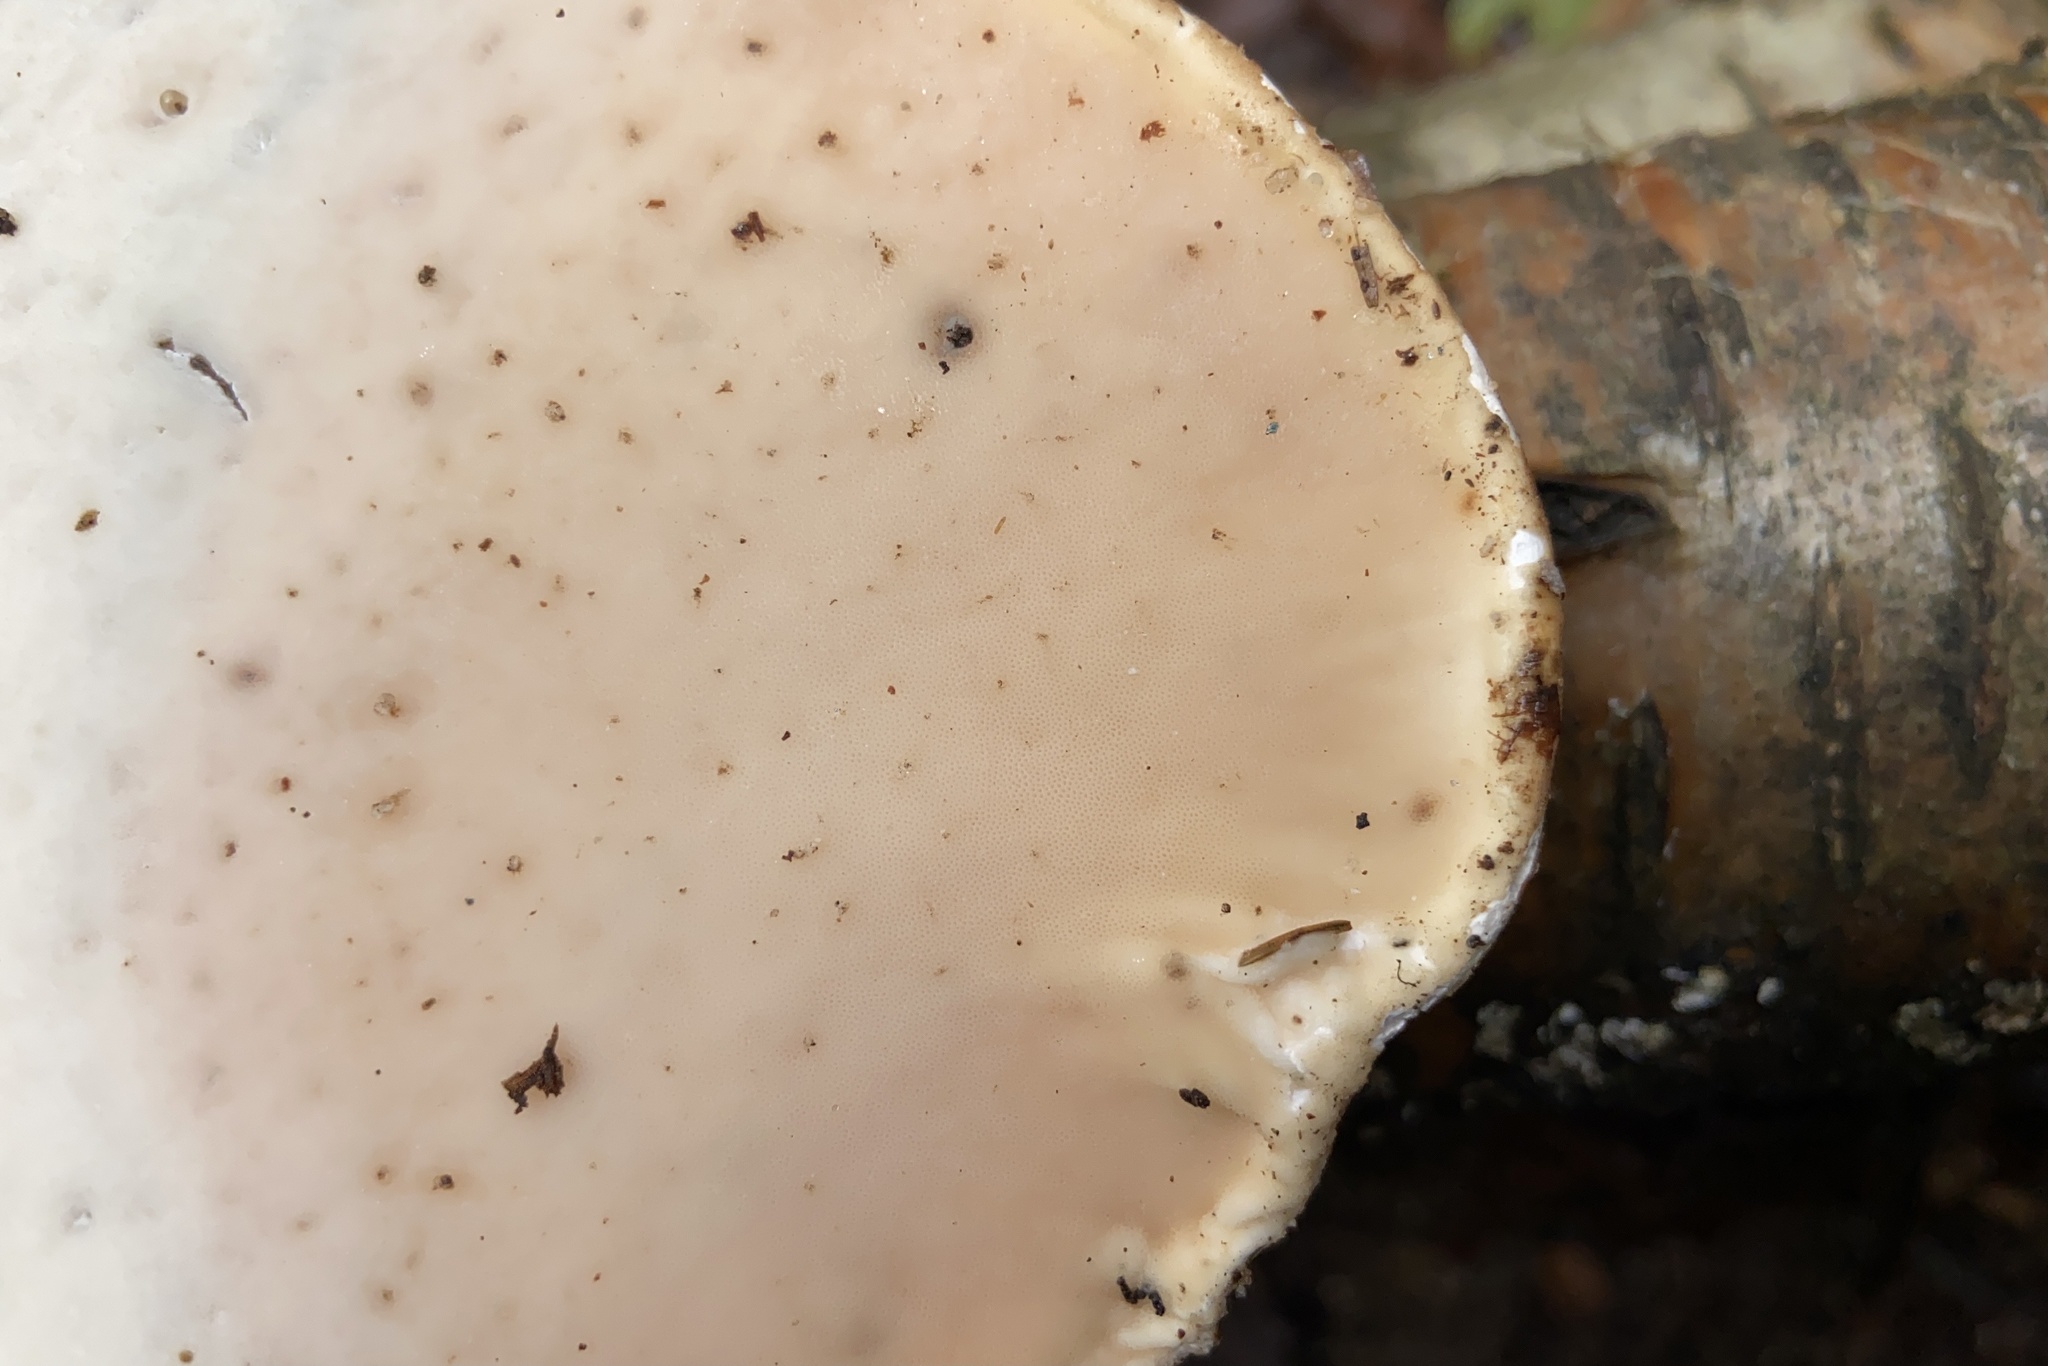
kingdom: Fungi
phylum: Basidiomycota
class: Agaricomycetes
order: Polyporales
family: Fomitopsidaceae
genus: Fomitopsis
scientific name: Fomitopsis betulina
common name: Birch polypore
